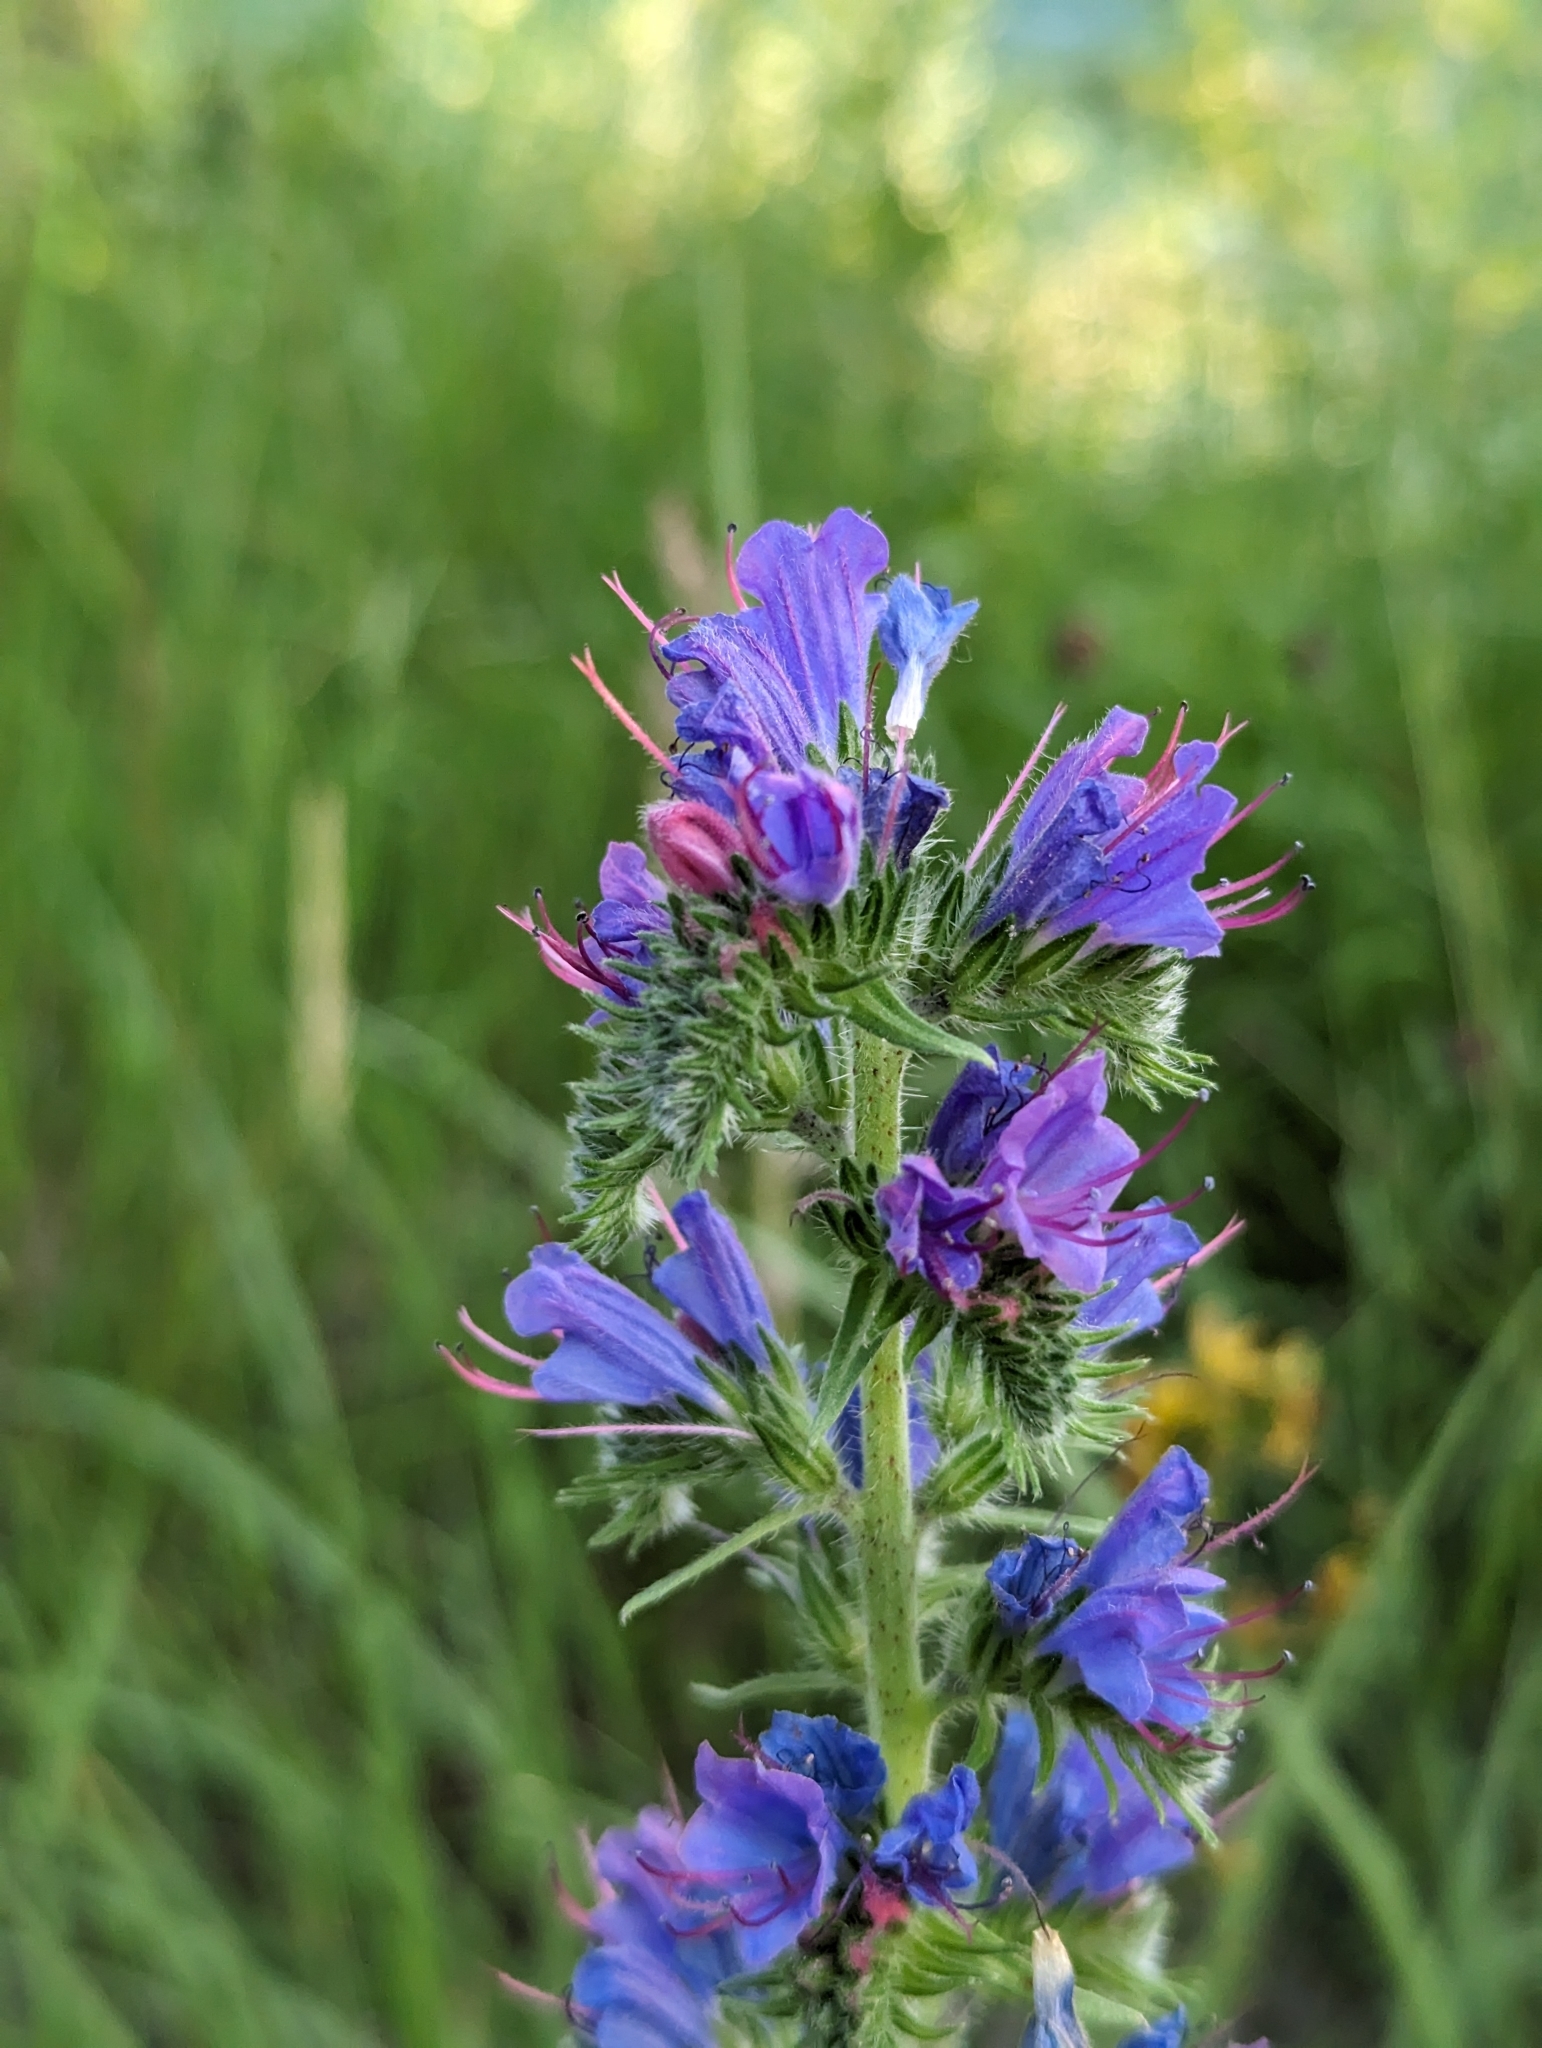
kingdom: Plantae
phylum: Tracheophyta
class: Magnoliopsida
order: Boraginales
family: Boraginaceae
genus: Echium
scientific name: Echium vulgare
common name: Common viper's bugloss
